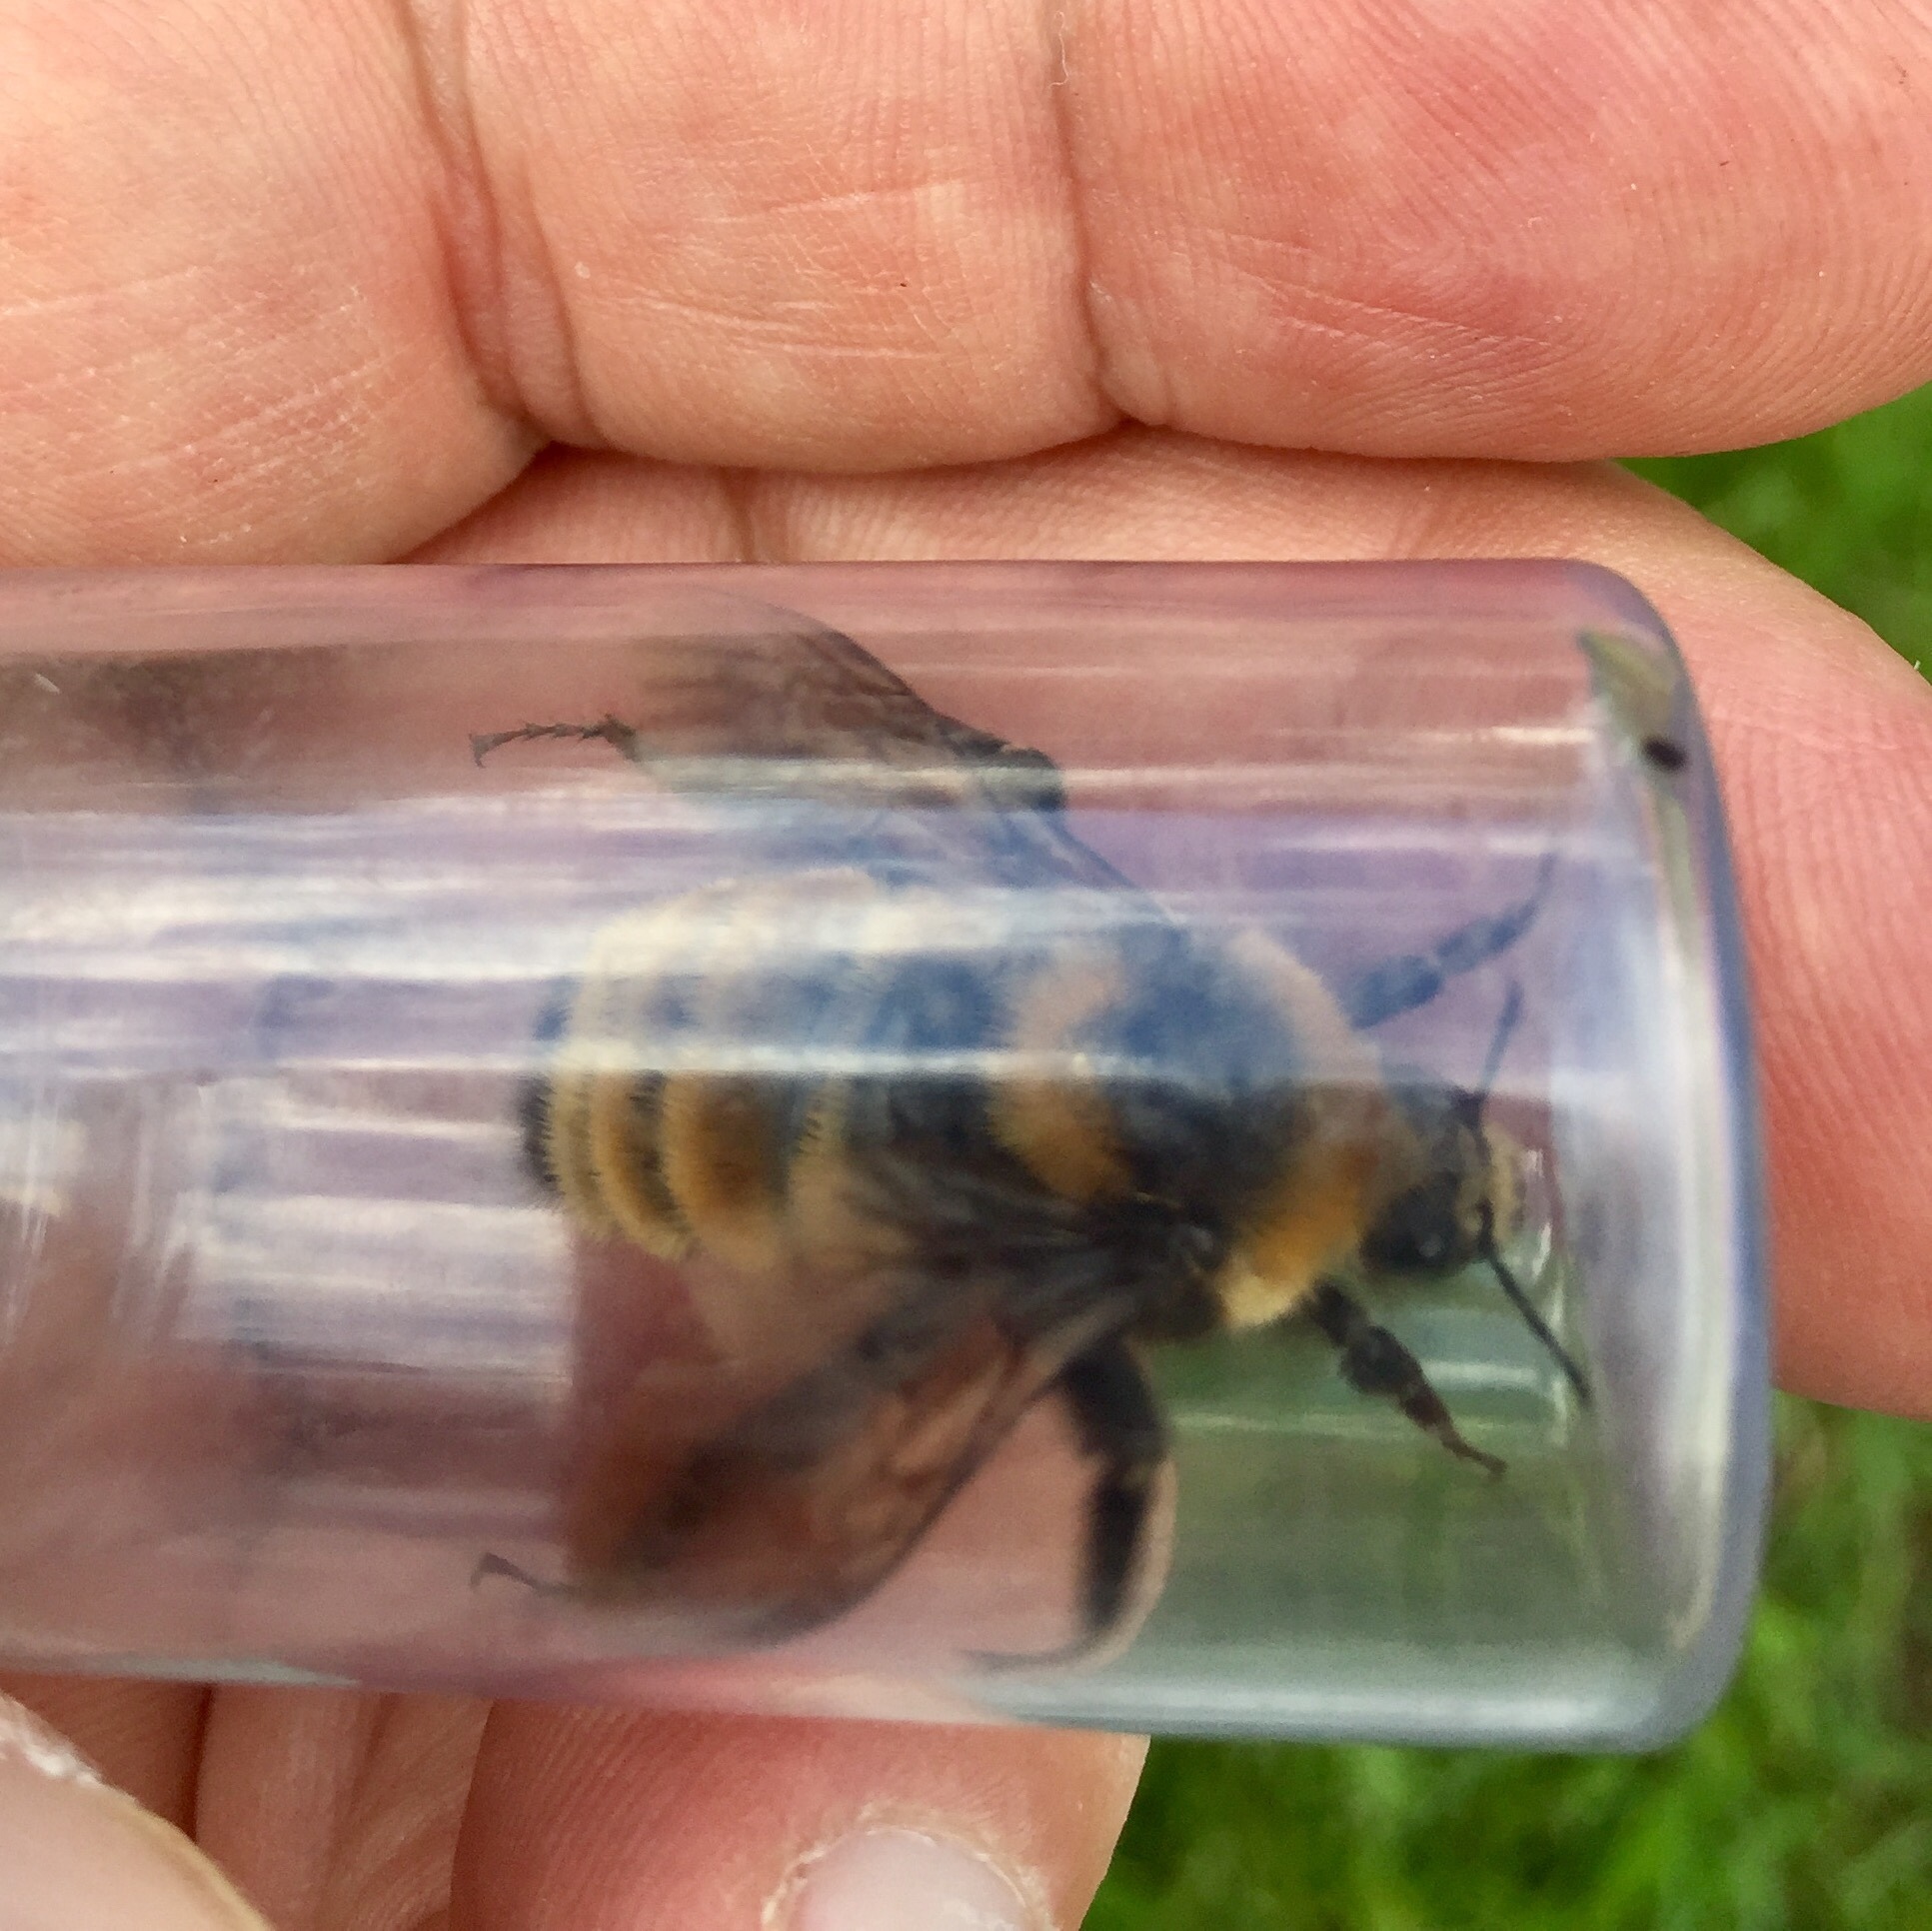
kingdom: Animalia
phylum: Arthropoda
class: Insecta
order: Hymenoptera
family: Apidae
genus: Bombus
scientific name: Bombus borealis
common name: Northern amber bumble bee
